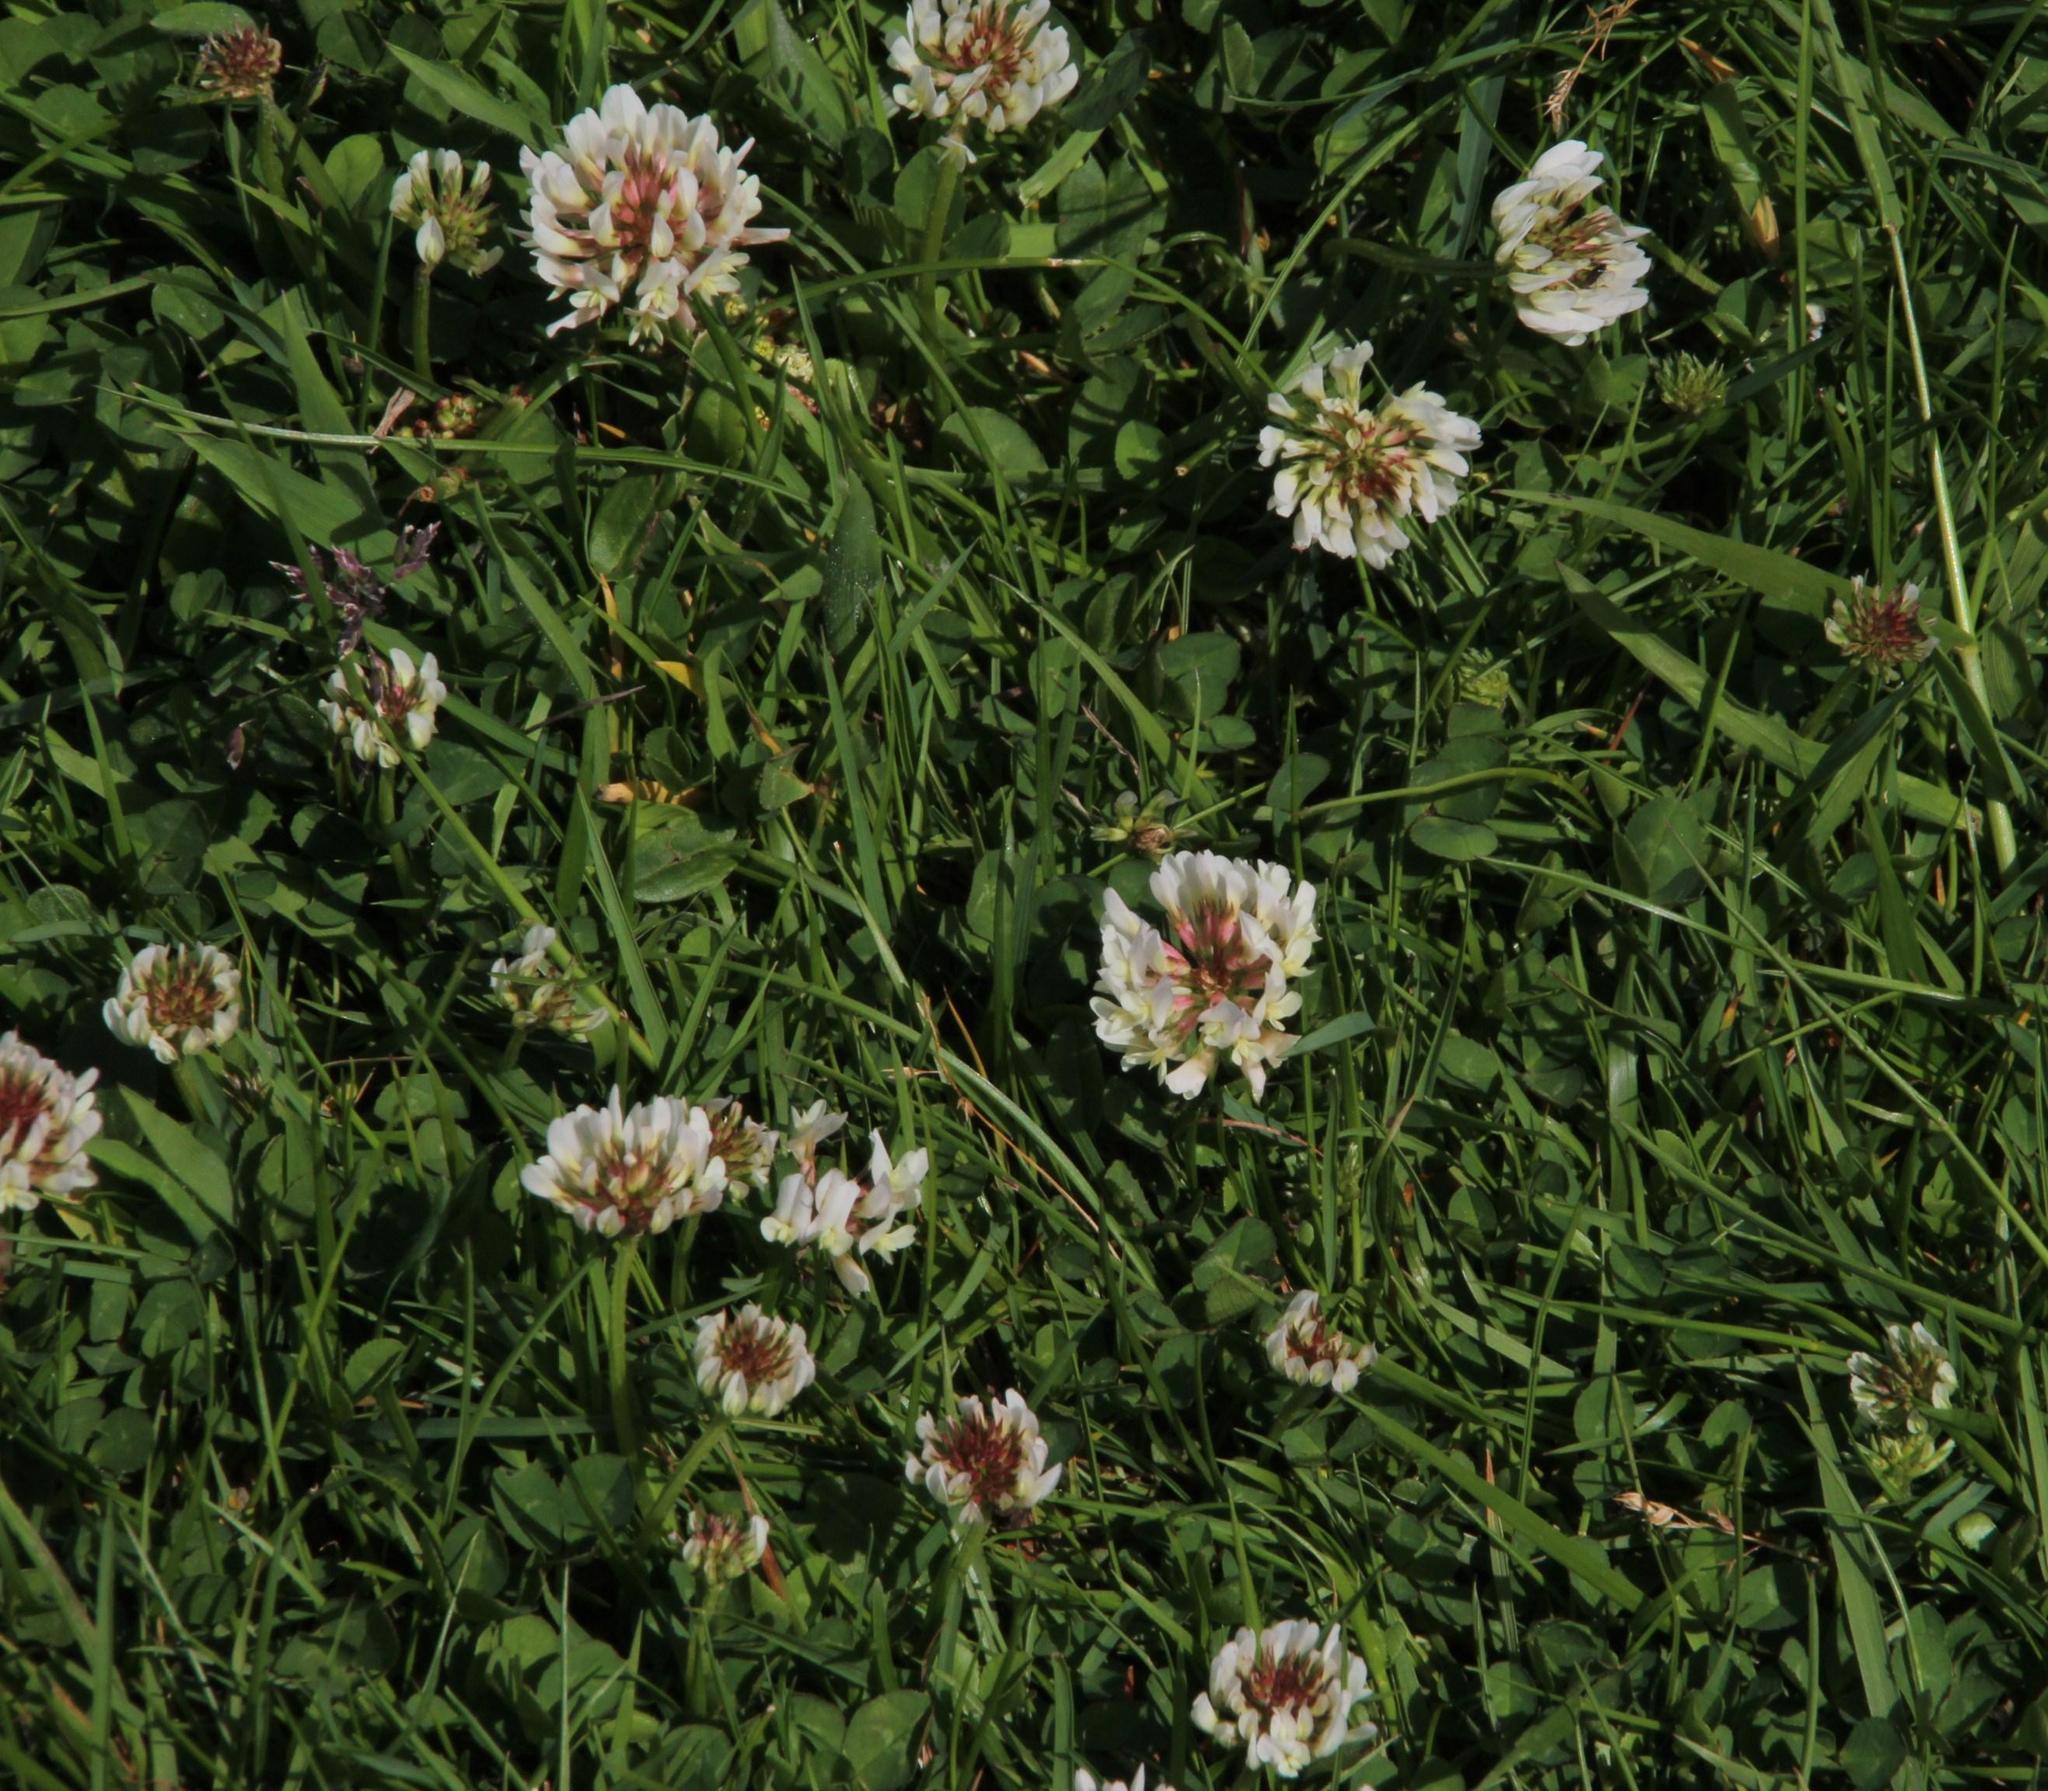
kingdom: Plantae
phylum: Tracheophyta
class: Magnoliopsida
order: Fabales
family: Fabaceae
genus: Trifolium
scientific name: Trifolium repens
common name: White clover
